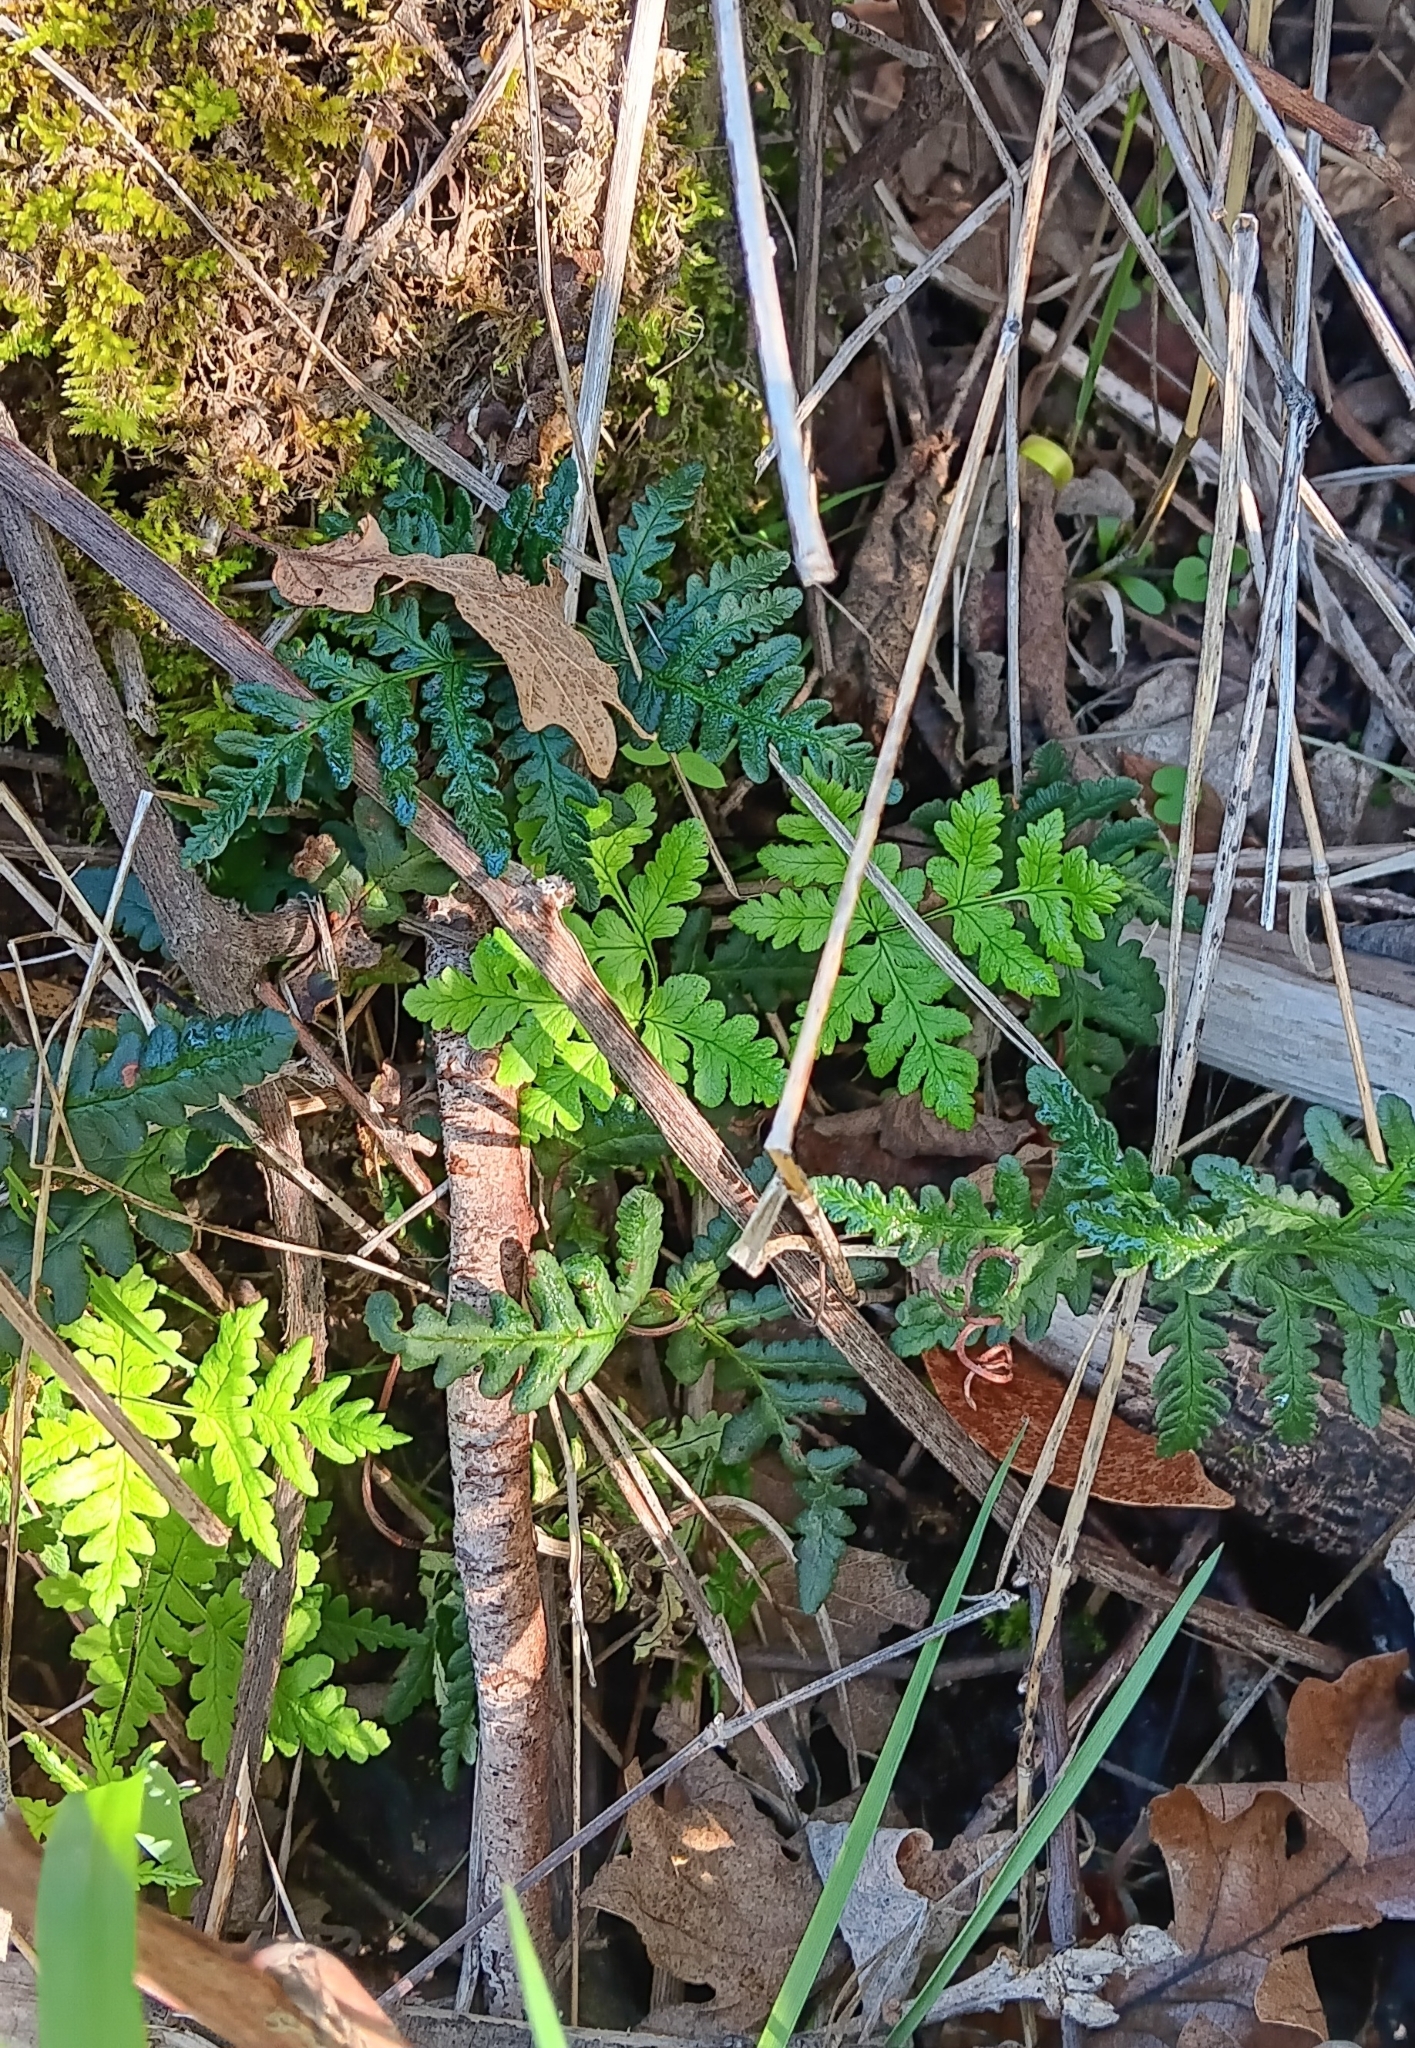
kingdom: Plantae
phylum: Tracheophyta
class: Polypodiopsida
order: Polypodiales
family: Pteridaceae
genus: Pentagramma
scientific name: Pentagramma triangularis
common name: Gold fern
